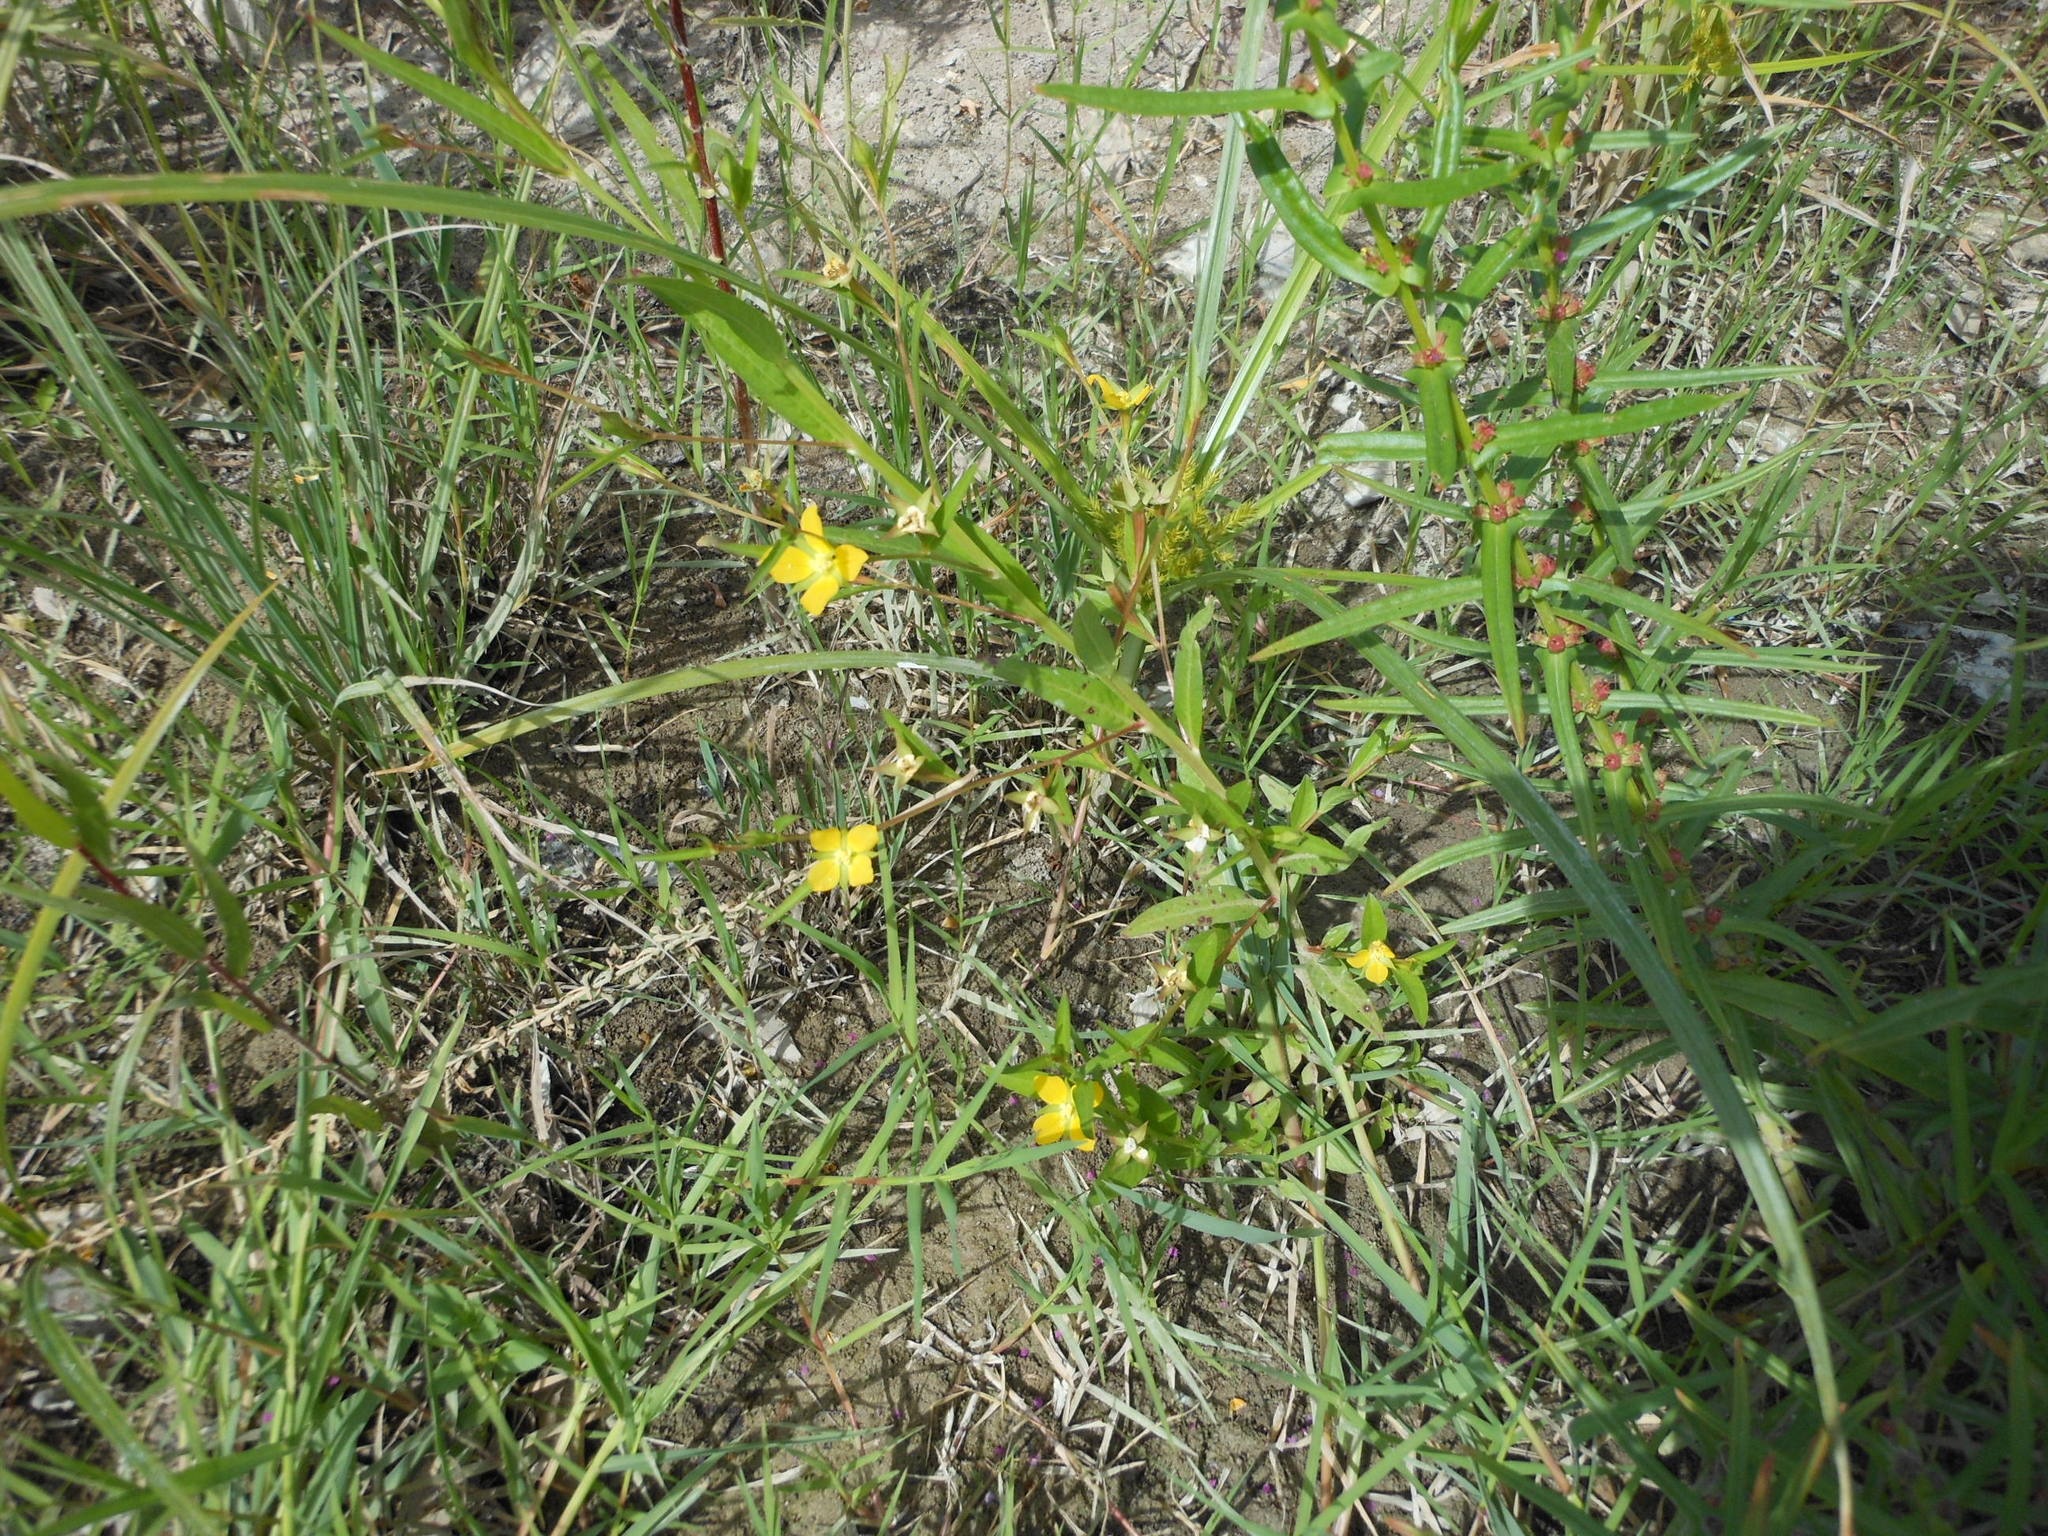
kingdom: Plantae
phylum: Tracheophyta
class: Magnoliopsida
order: Myrtales
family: Onagraceae
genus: Ludwigia
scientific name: Ludwigia decurrens
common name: Winged water-primrose
